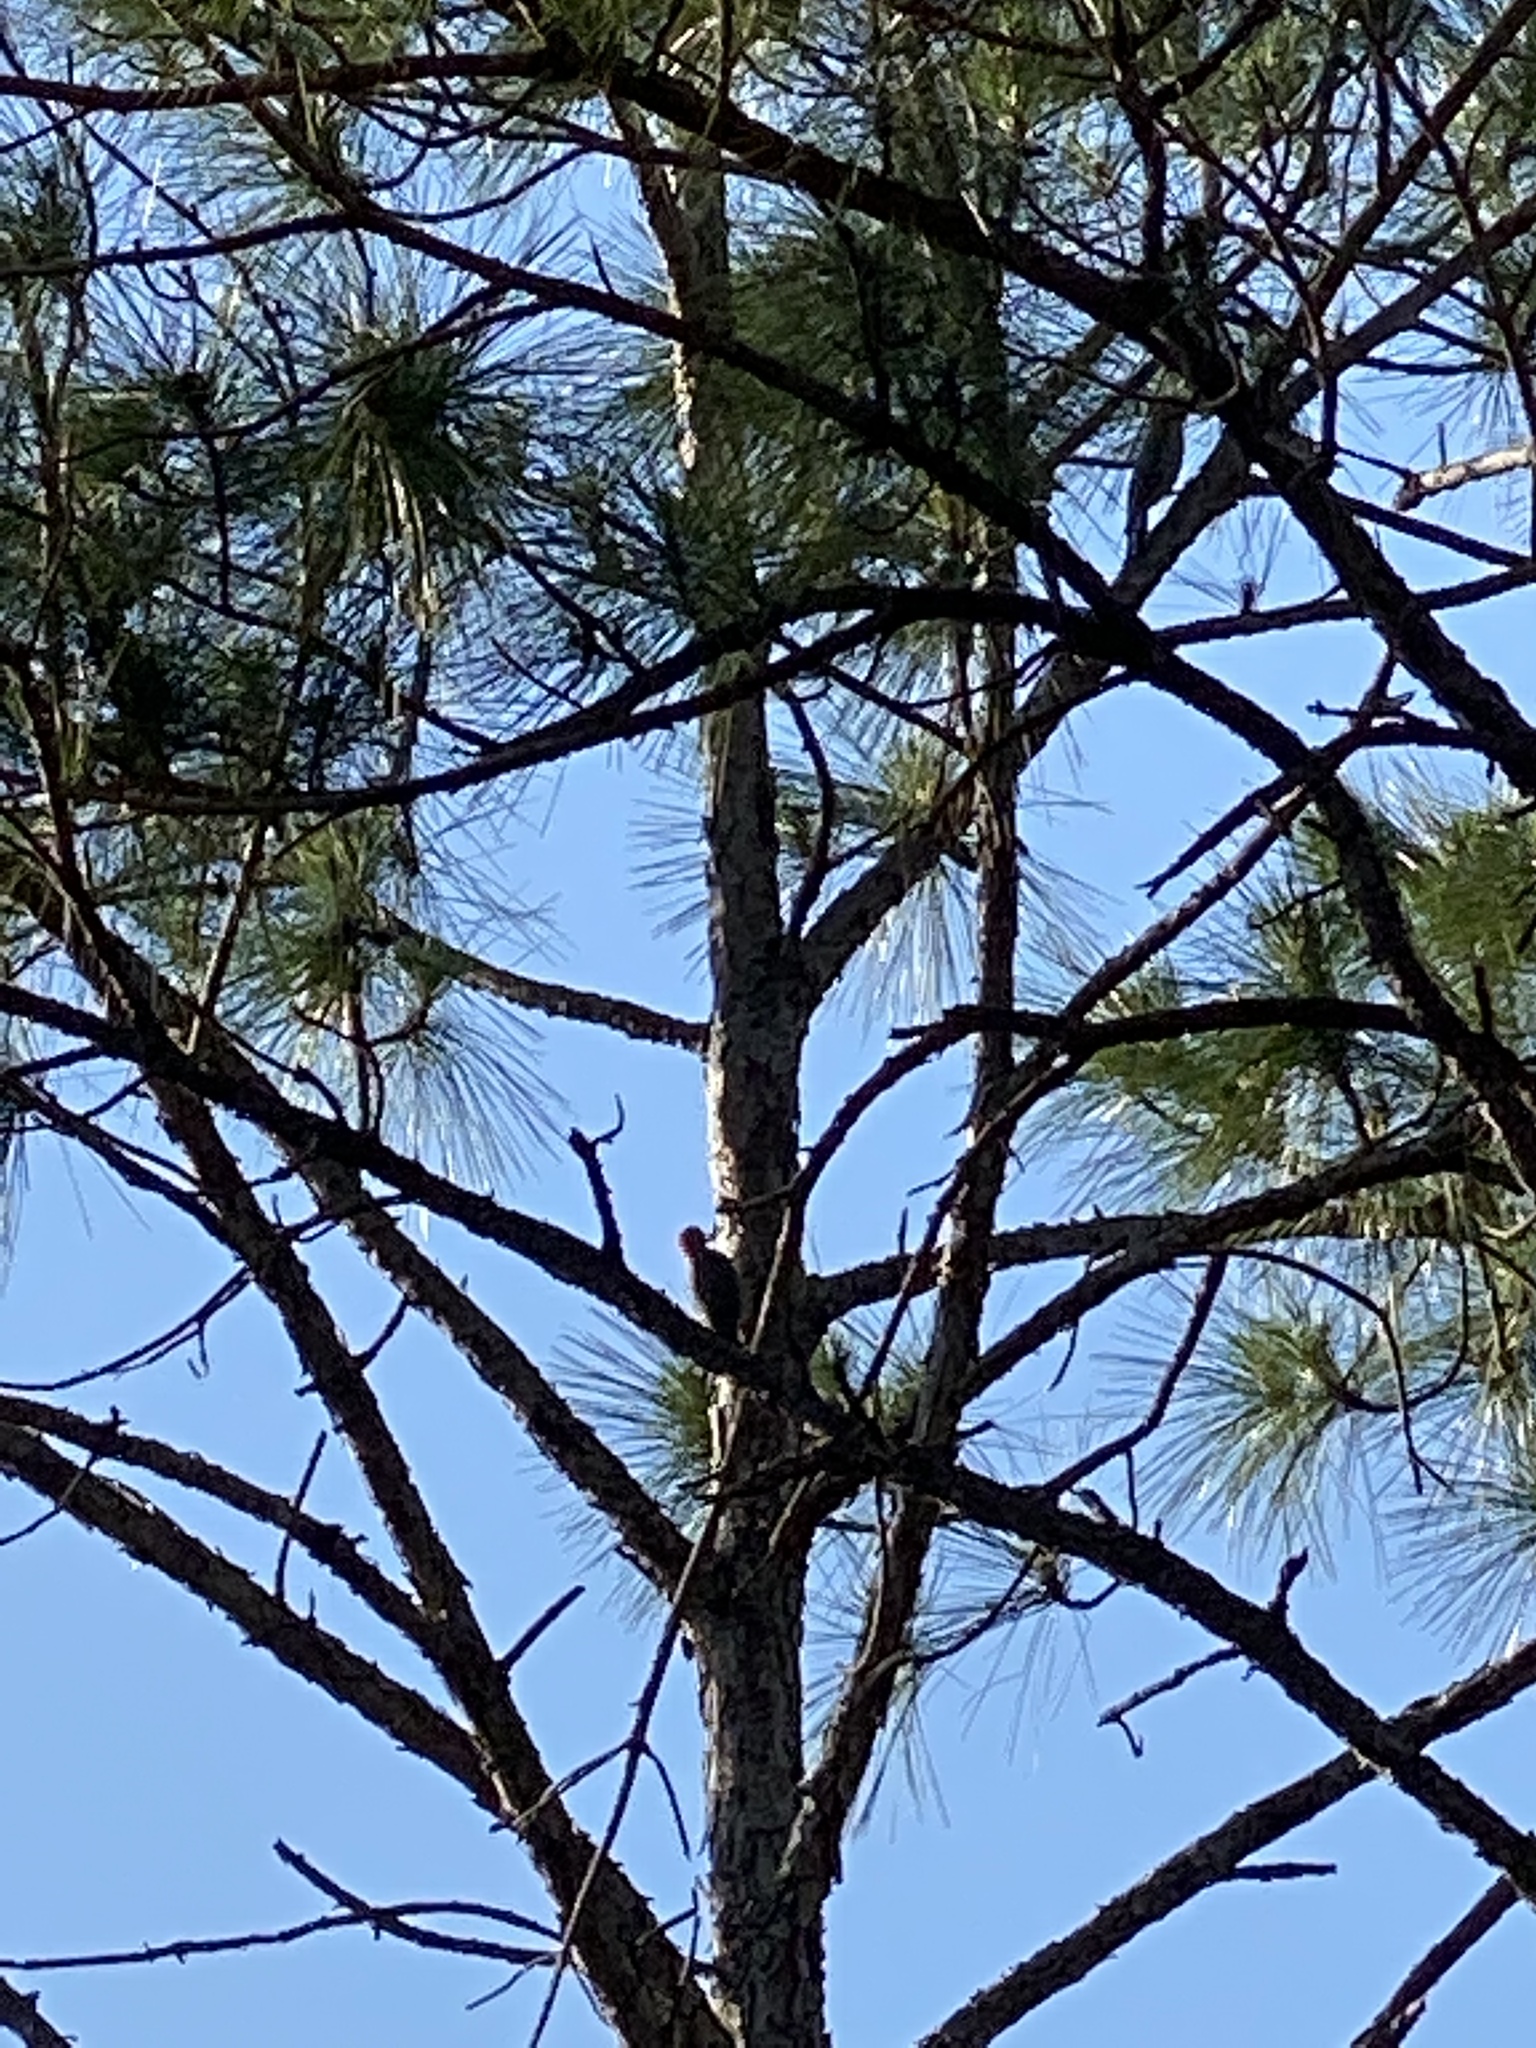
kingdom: Animalia
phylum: Chordata
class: Aves
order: Piciformes
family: Picidae
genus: Melanerpes
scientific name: Melanerpes carolinus
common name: Red-bellied woodpecker
